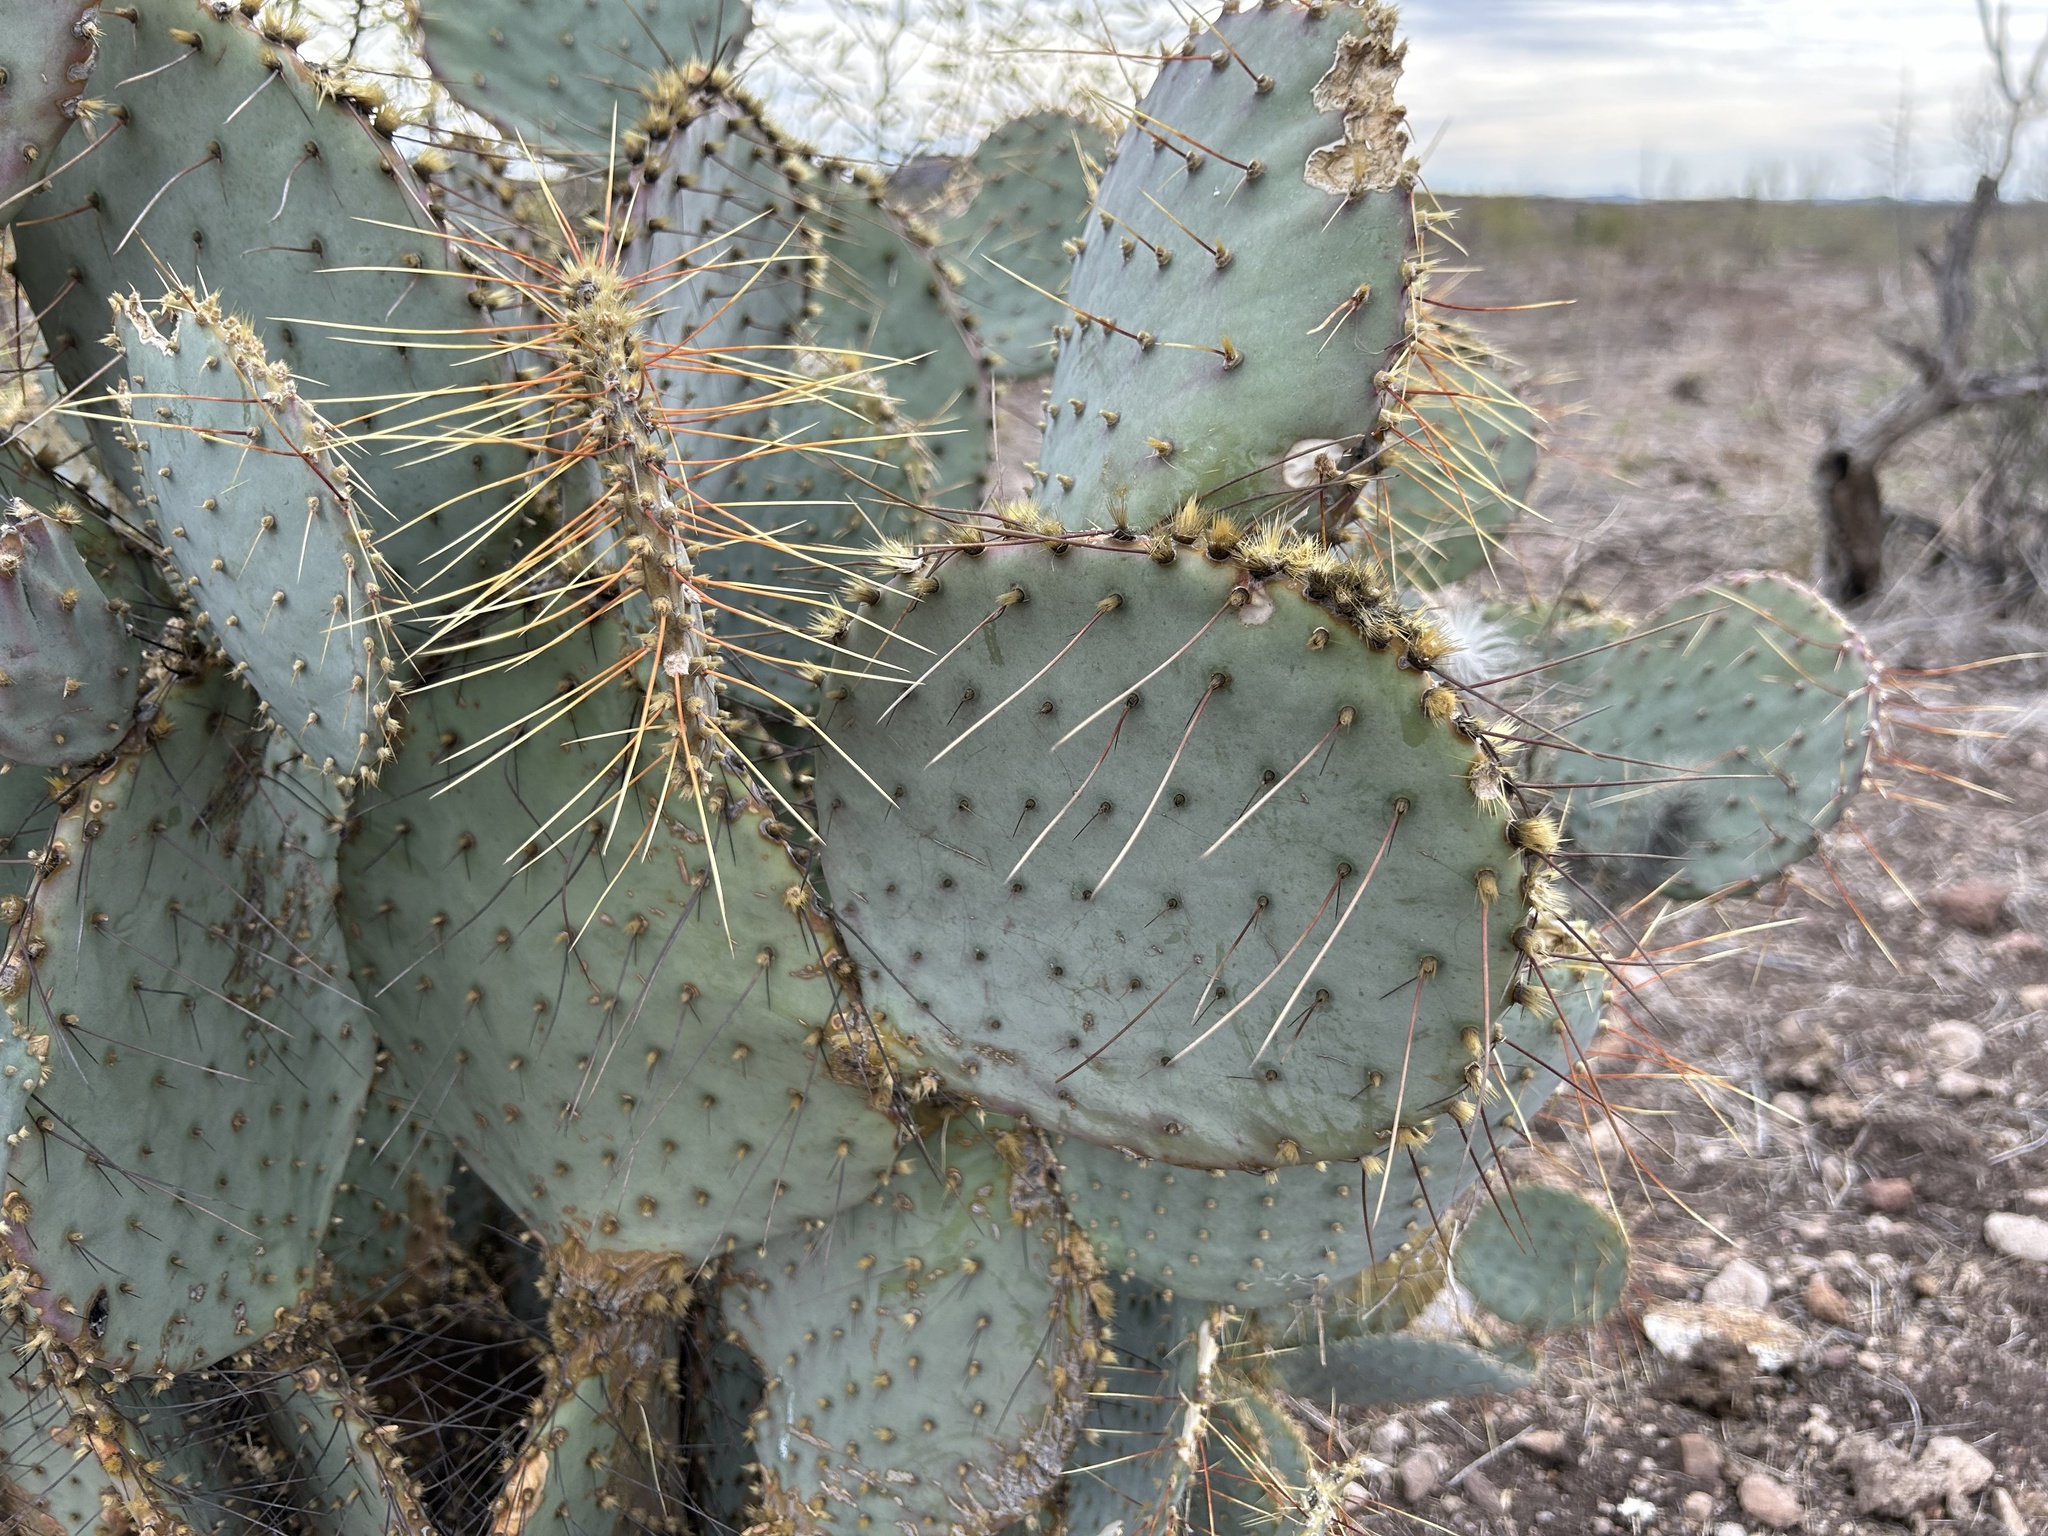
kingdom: Plantae
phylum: Tracheophyta
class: Magnoliopsida
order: Caryophyllales
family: Cactaceae
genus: Opuntia
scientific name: Opuntia gosseliniana
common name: Violet prickly-pear
